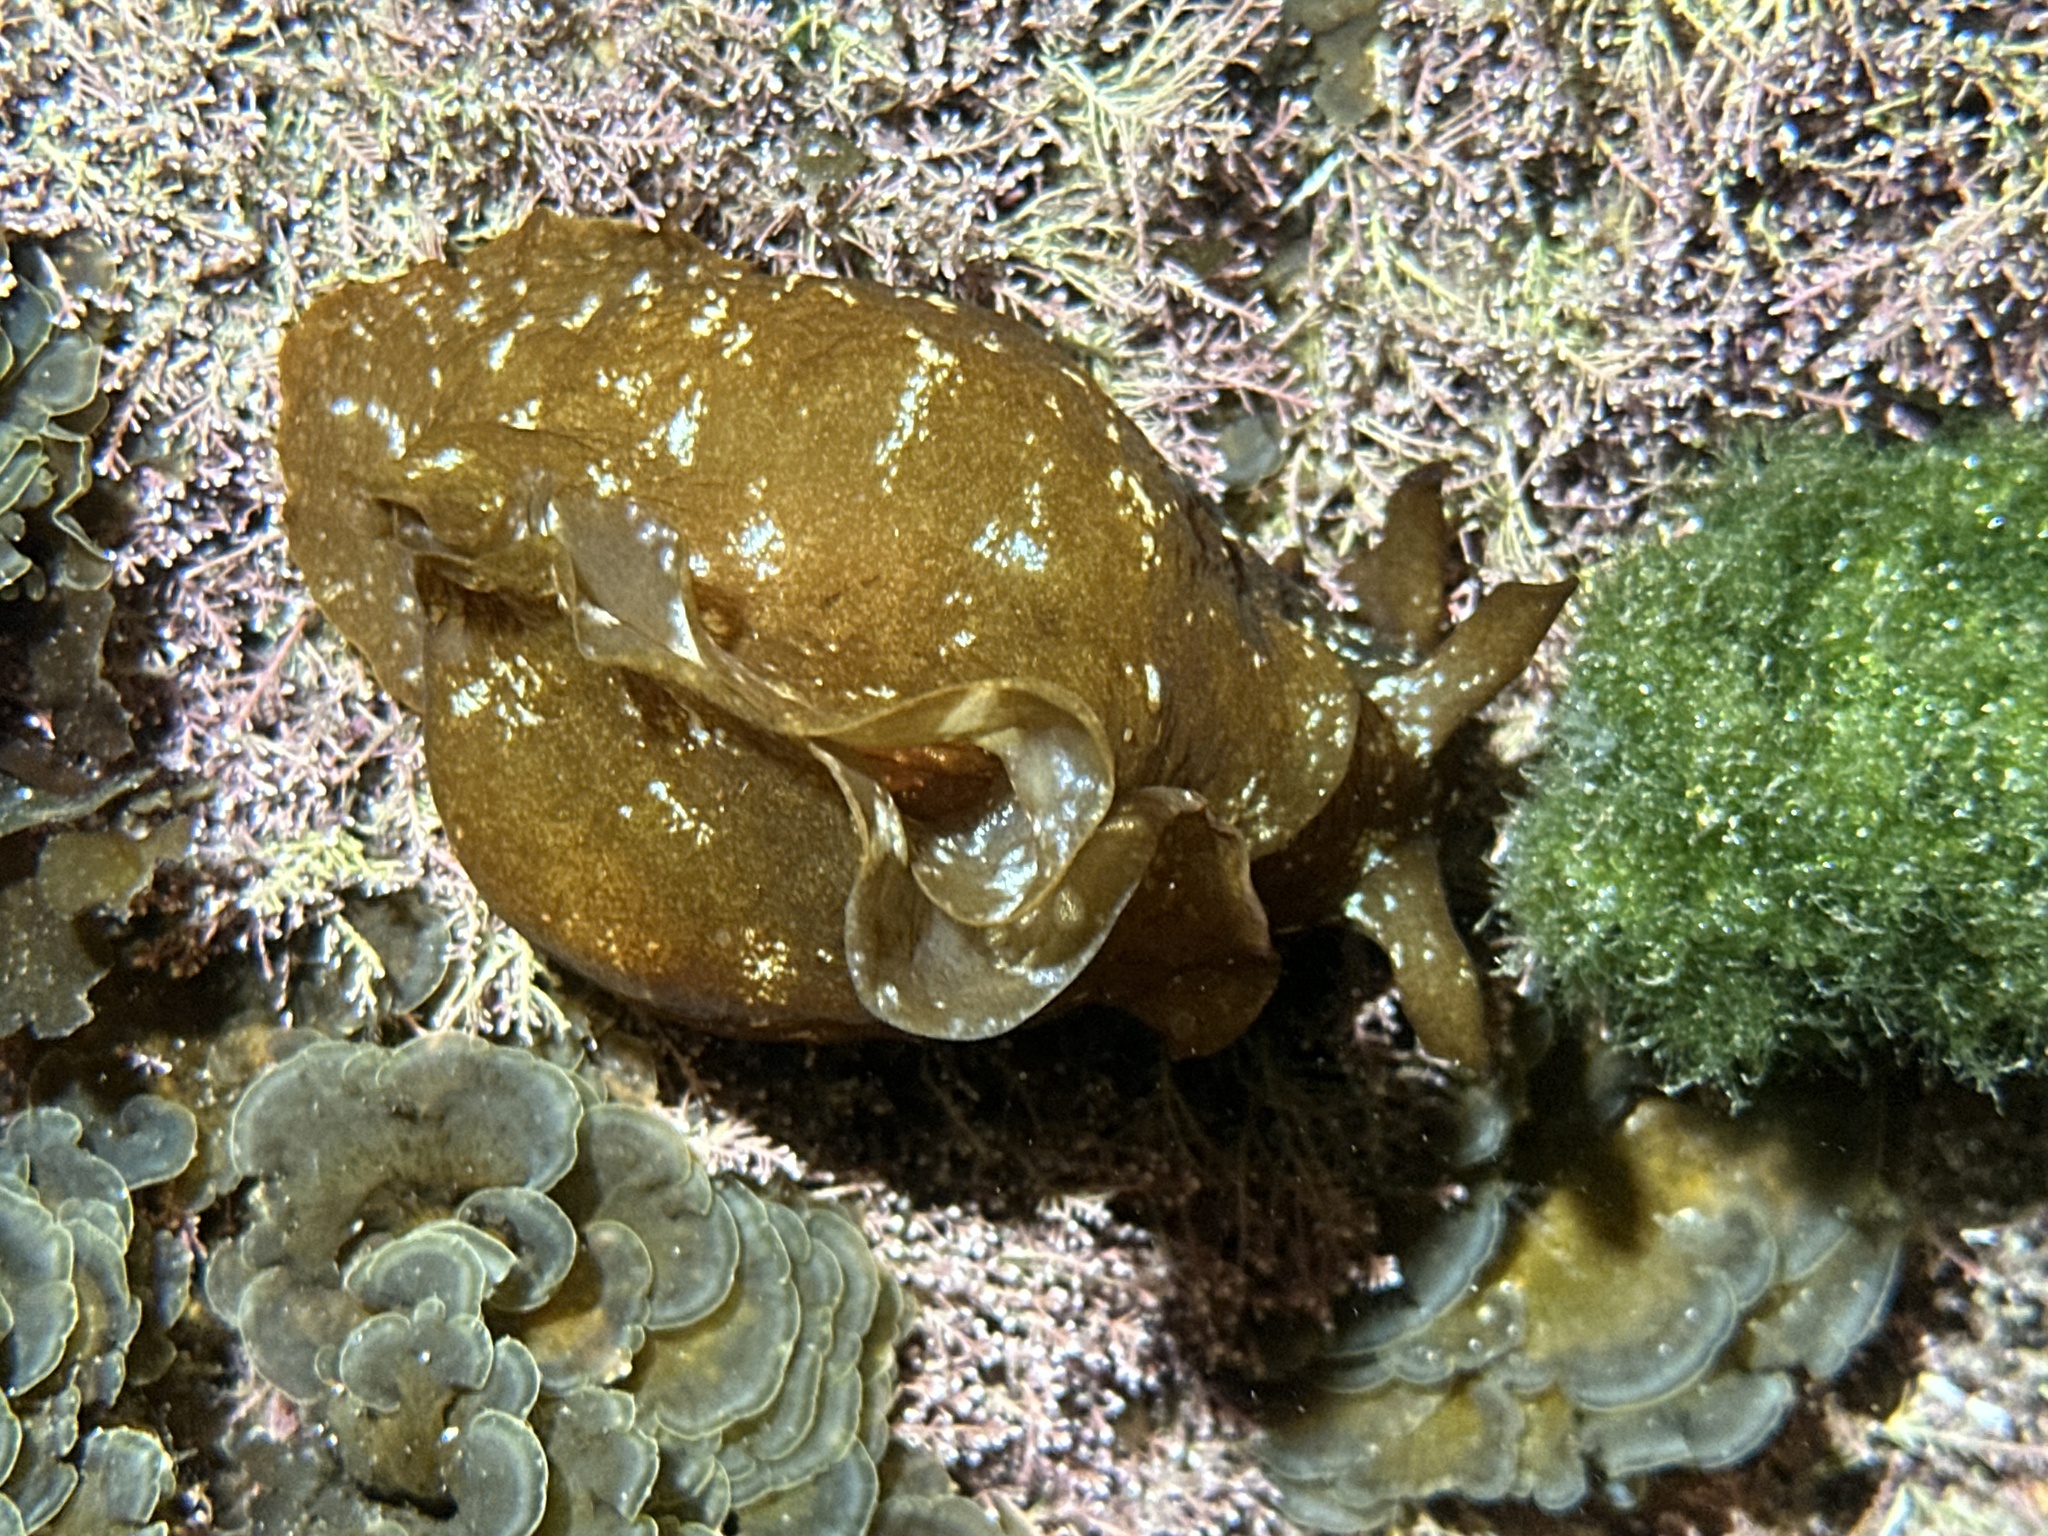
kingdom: Animalia
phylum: Mollusca
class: Gastropoda
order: Aplysiida
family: Aplysiidae
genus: Aplysia
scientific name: Aplysia sydneyensis
